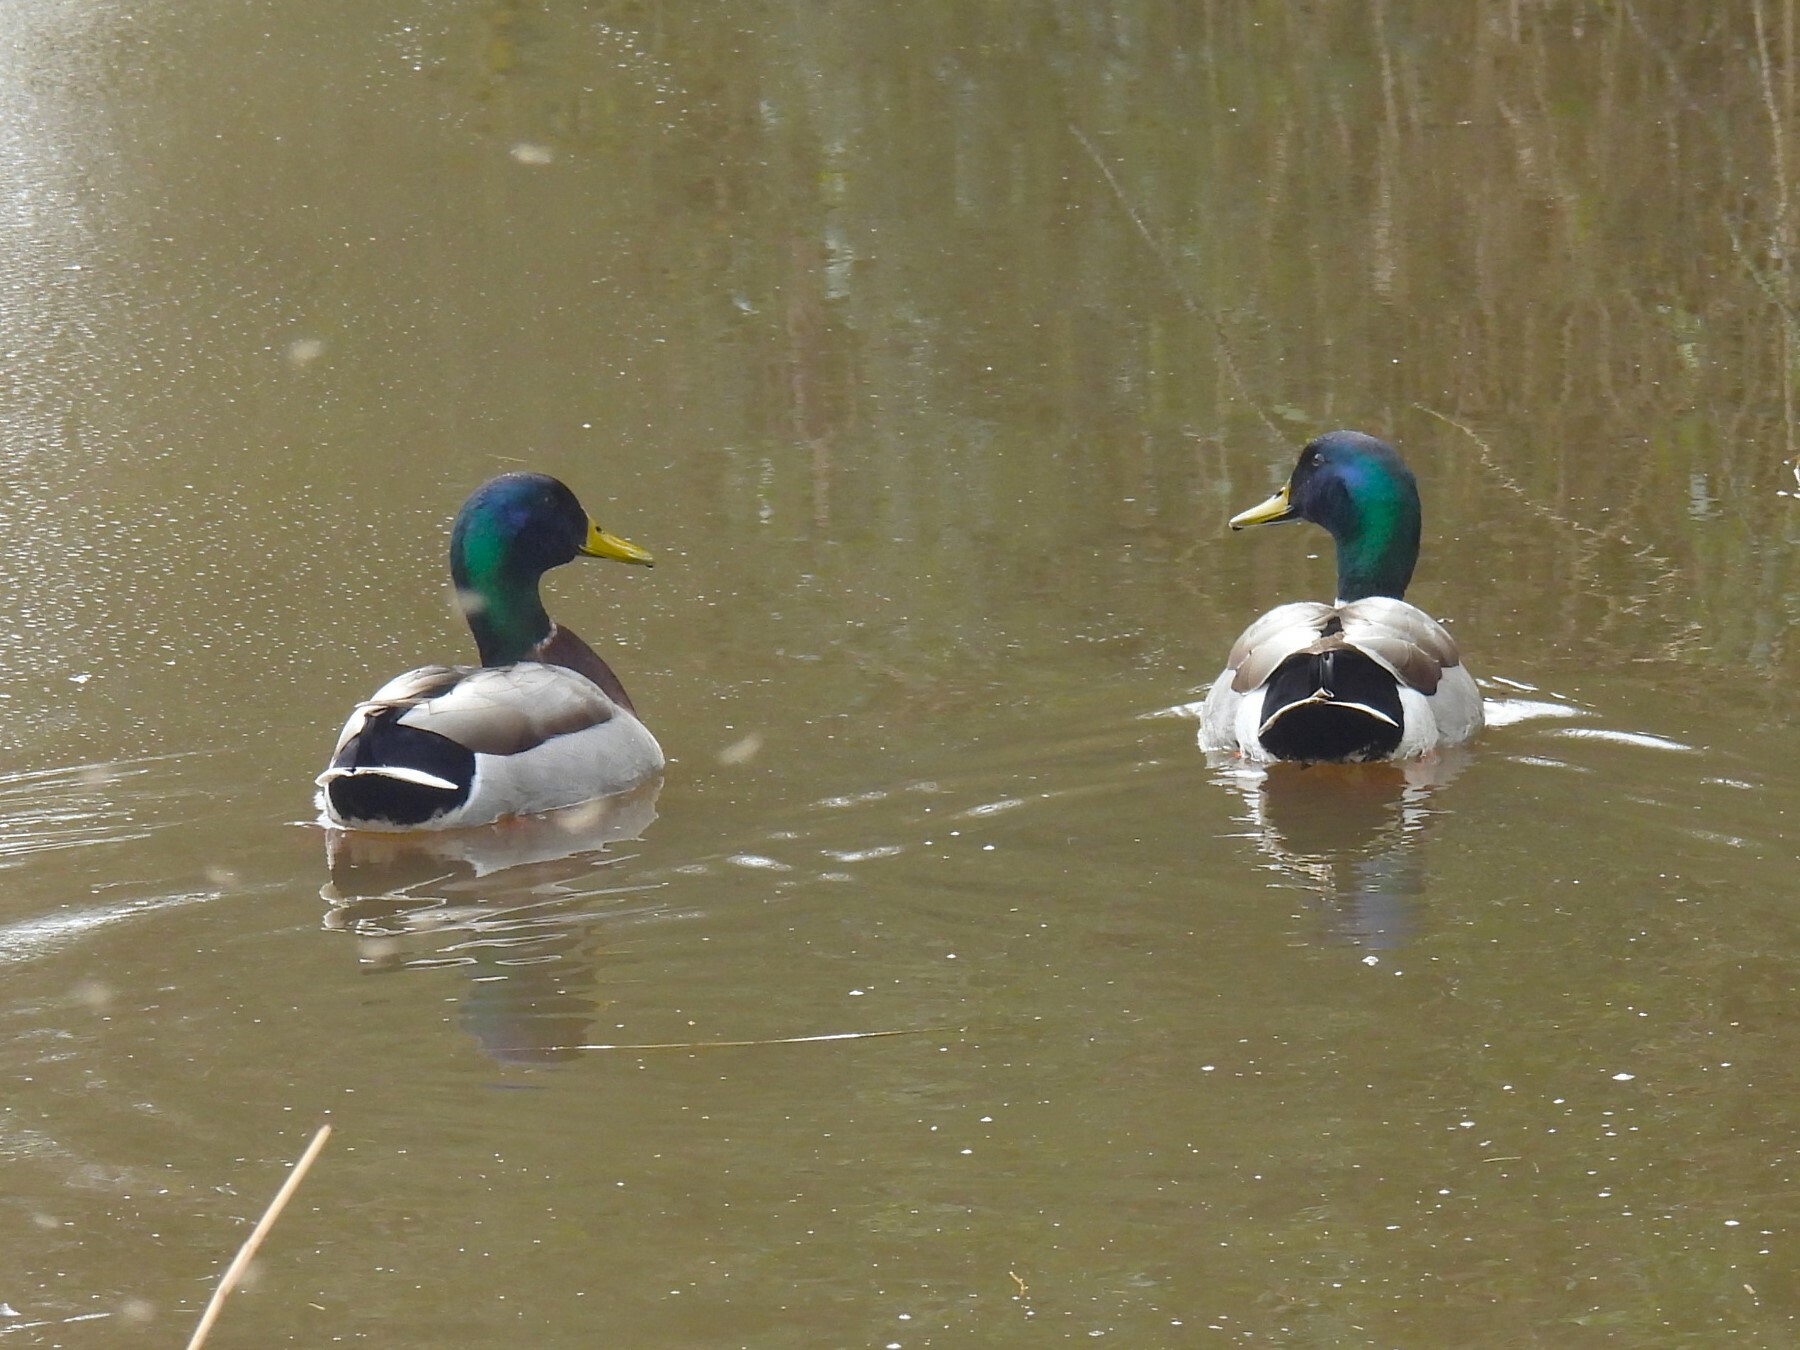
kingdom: Animalia
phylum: Chordata
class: Aves
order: Anseriformes
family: Anatidae
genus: Anas
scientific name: Anas platyrhynchos
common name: Mallard
